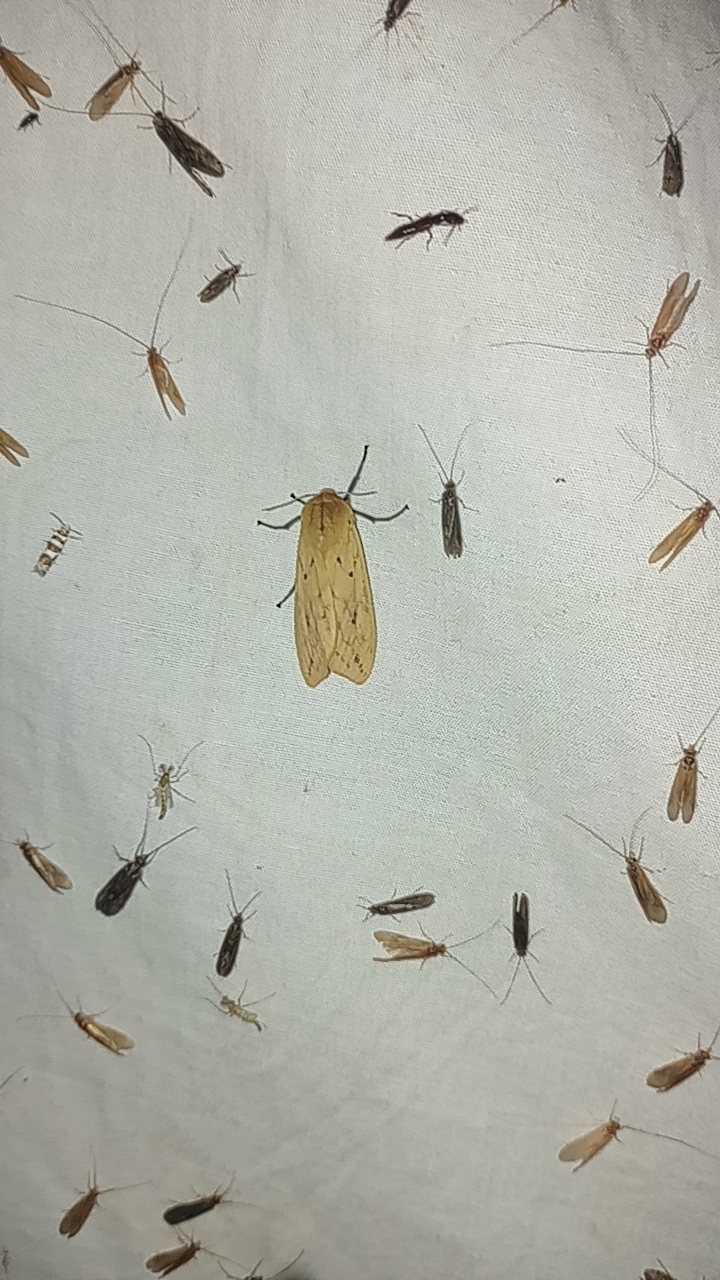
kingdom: Animalia
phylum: Arthropoda
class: Insecta
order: Lepidoptera
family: Erebidae
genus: Pyrrharctia
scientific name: Pyrrharctia isabella
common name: Isabella tiger moth
